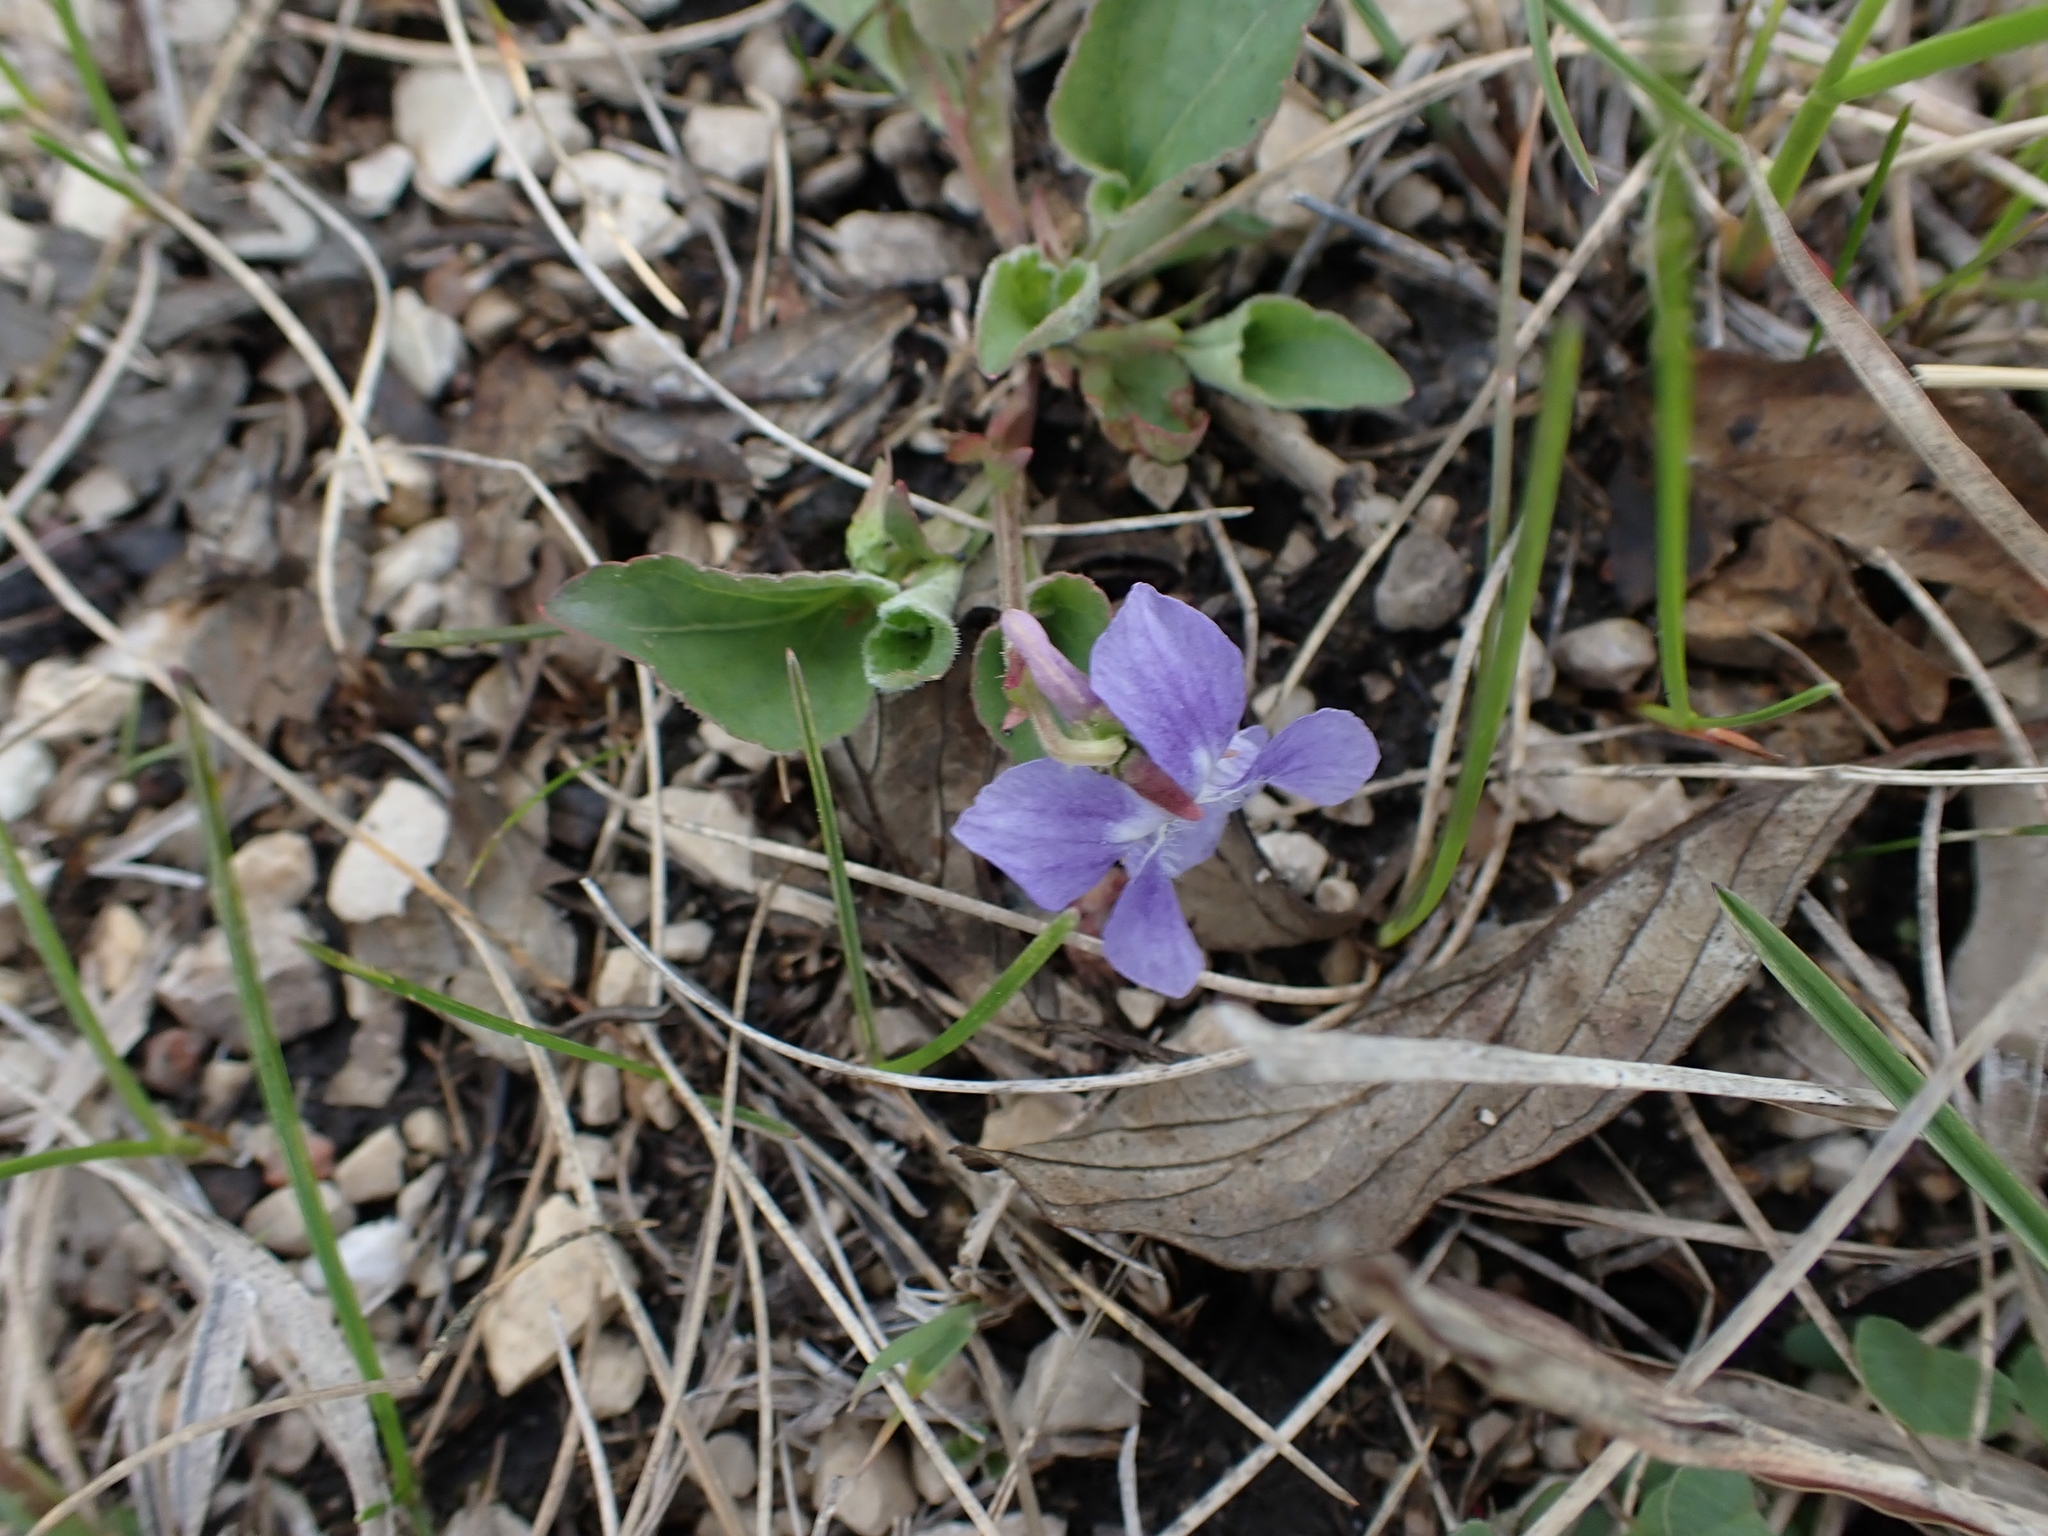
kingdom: Plantae
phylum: Tracheophyta
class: Magnoliopsida
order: Malpighiales
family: Violaceae
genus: Viola
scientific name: Viola adunca
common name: Sand violet
